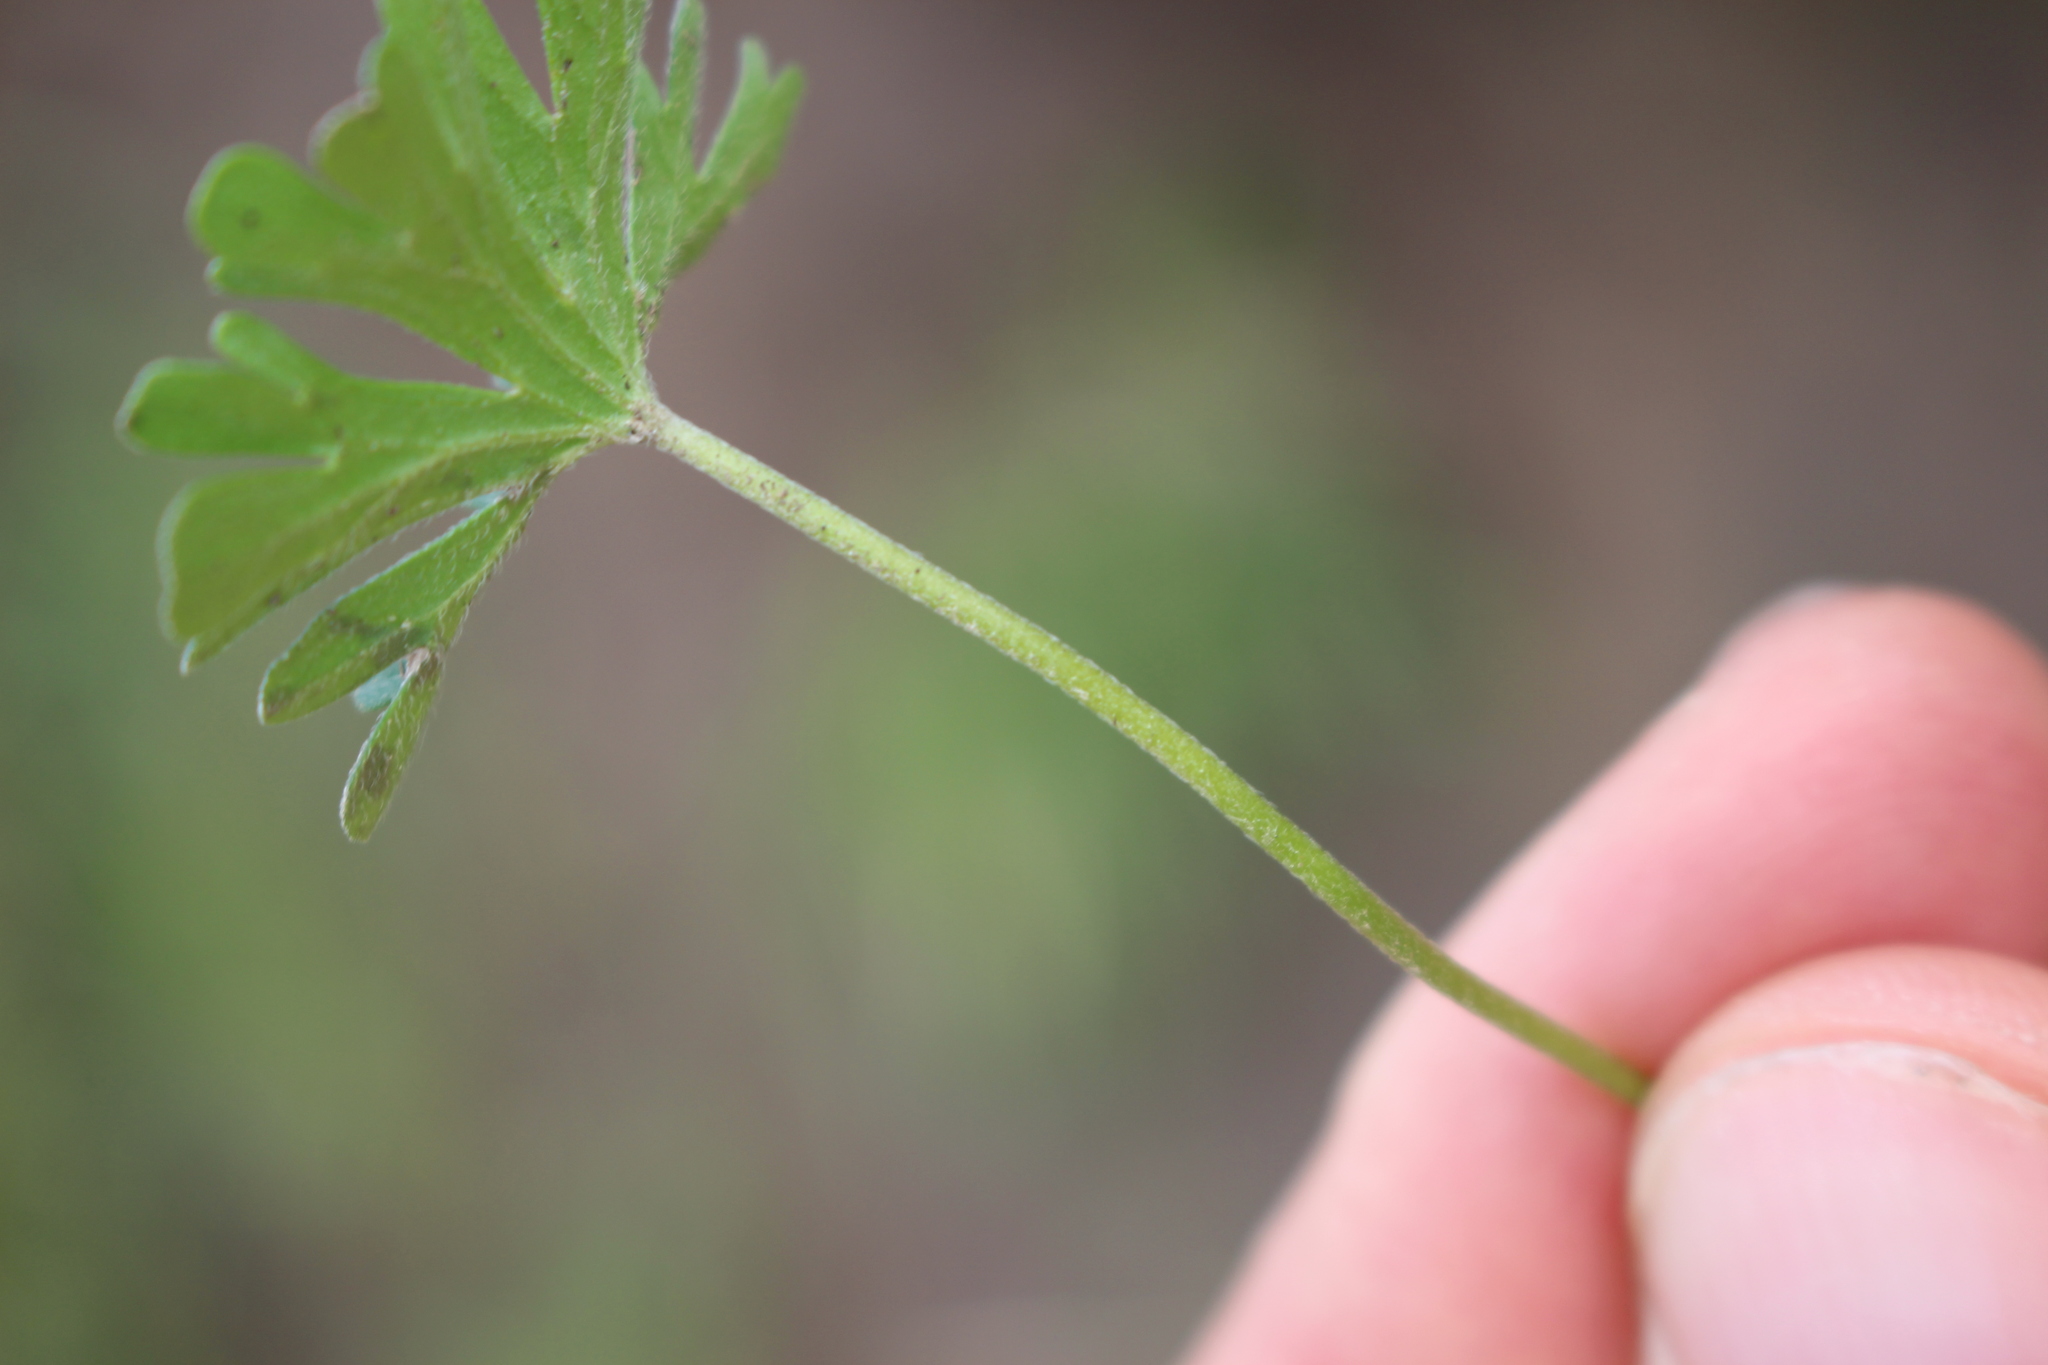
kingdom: Plantae
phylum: Tracheophyta
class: Magnoliopsida
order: Geraniales
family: Geraniaceae
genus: Geranium
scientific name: Geranium retrorsum
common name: New zealand geranium
